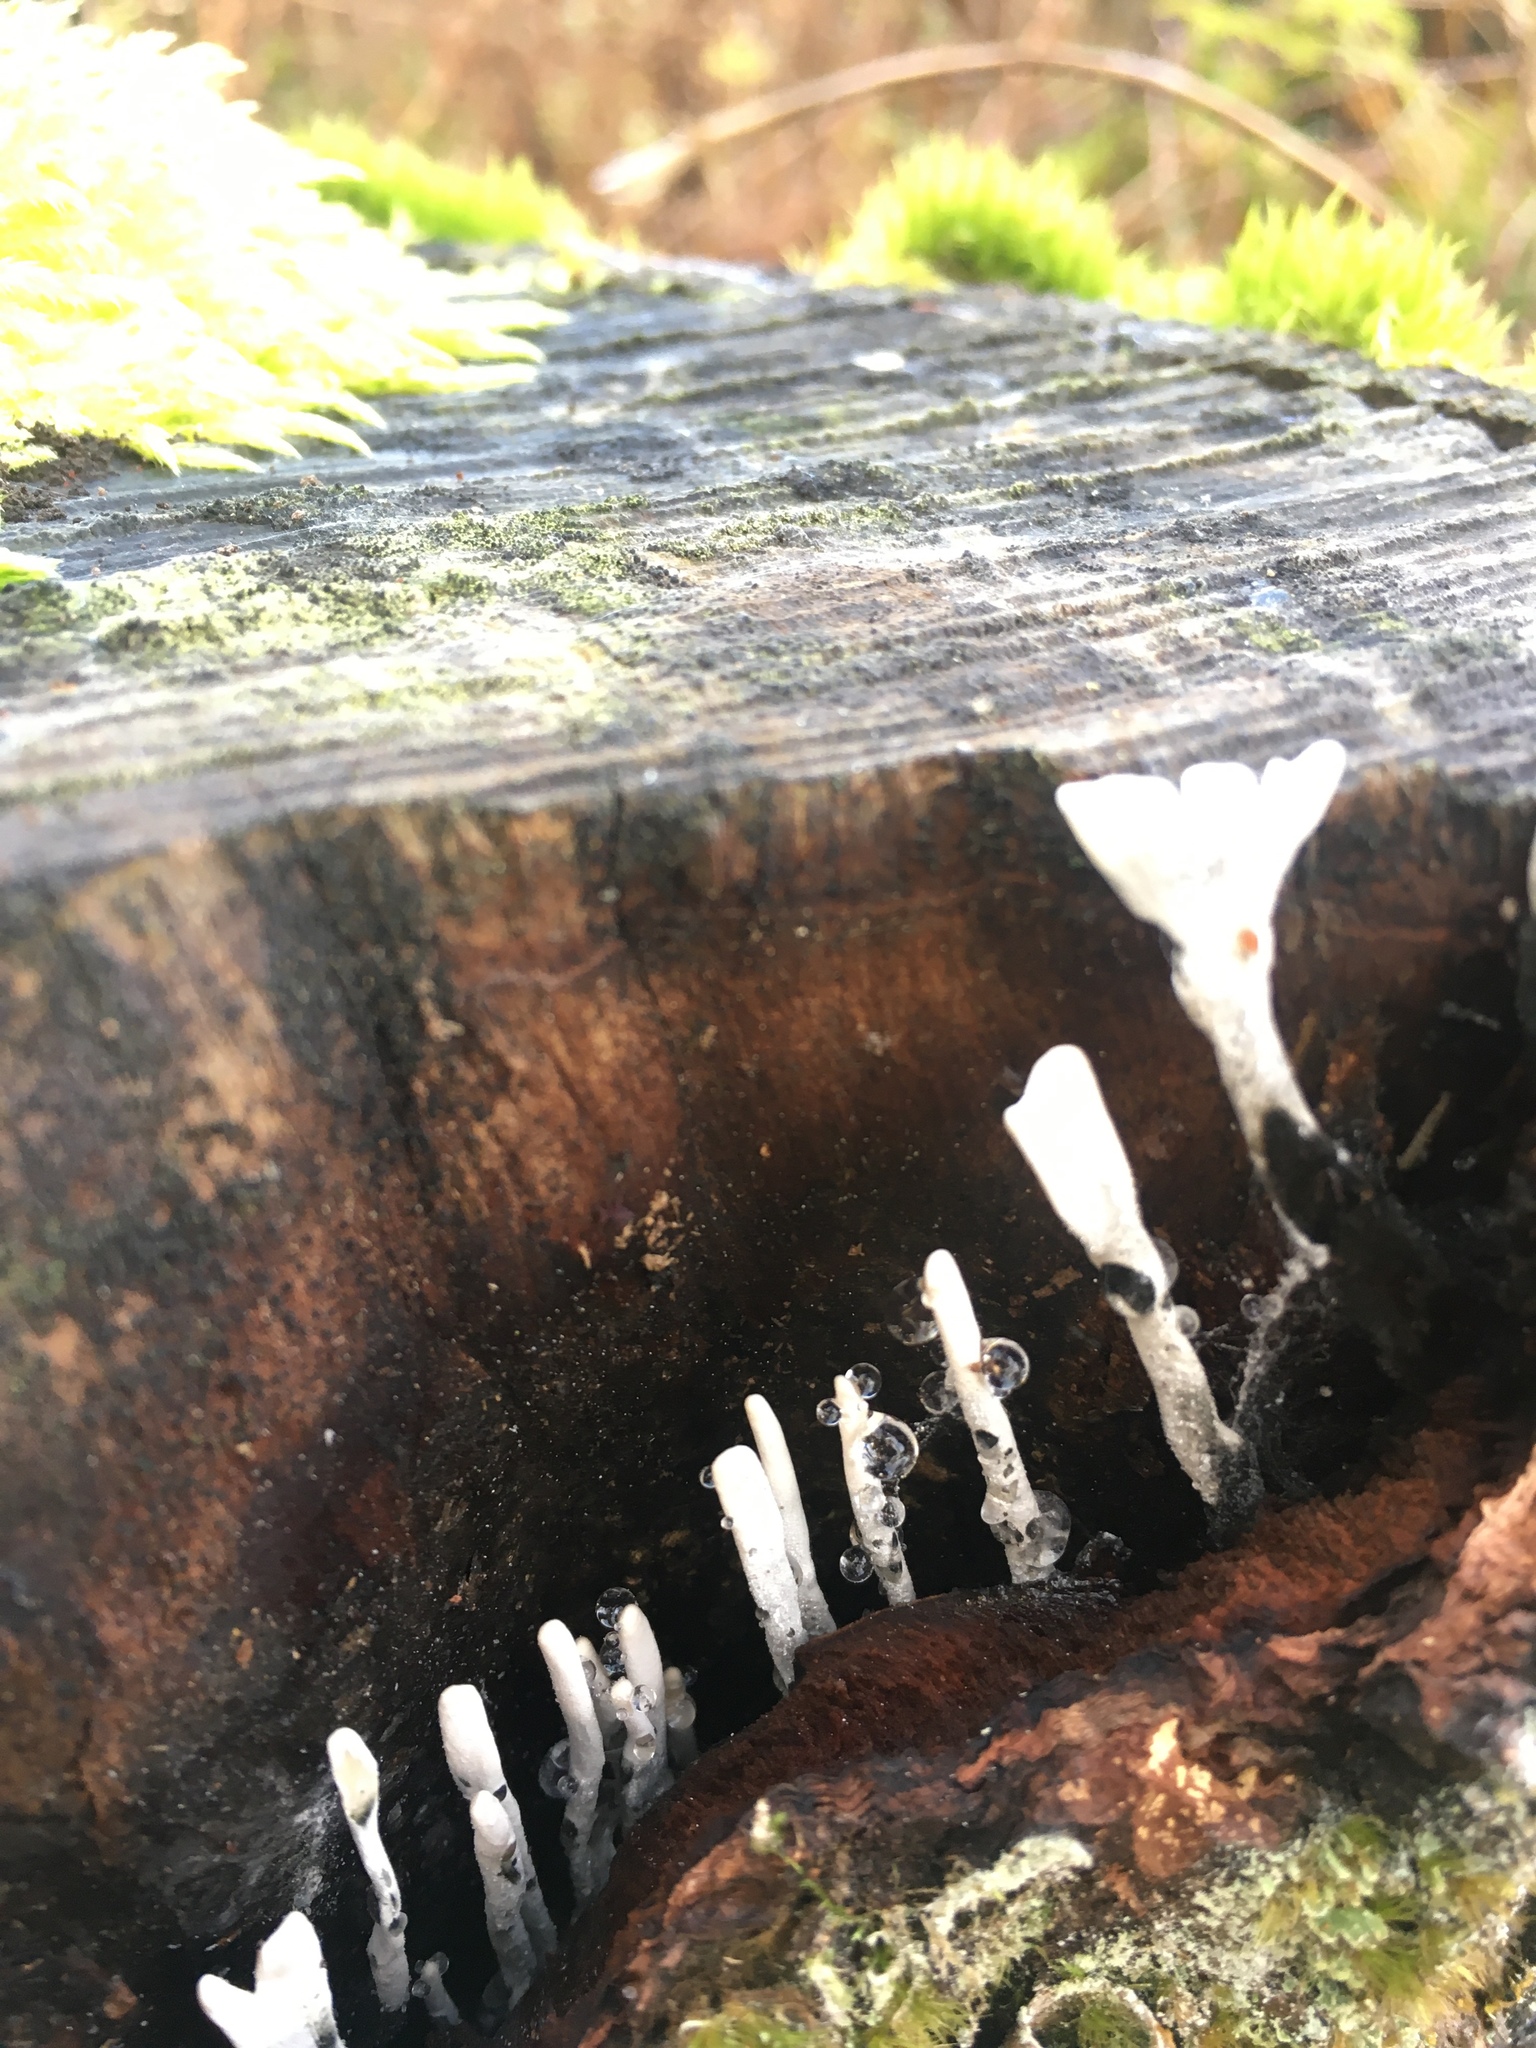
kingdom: Fungi
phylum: Ascomycota
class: Sordariomycetes
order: Xylariales
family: Xylariaceae
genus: Xylaria
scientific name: Xylaria hypoxylon
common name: Candle-snuff fungus
